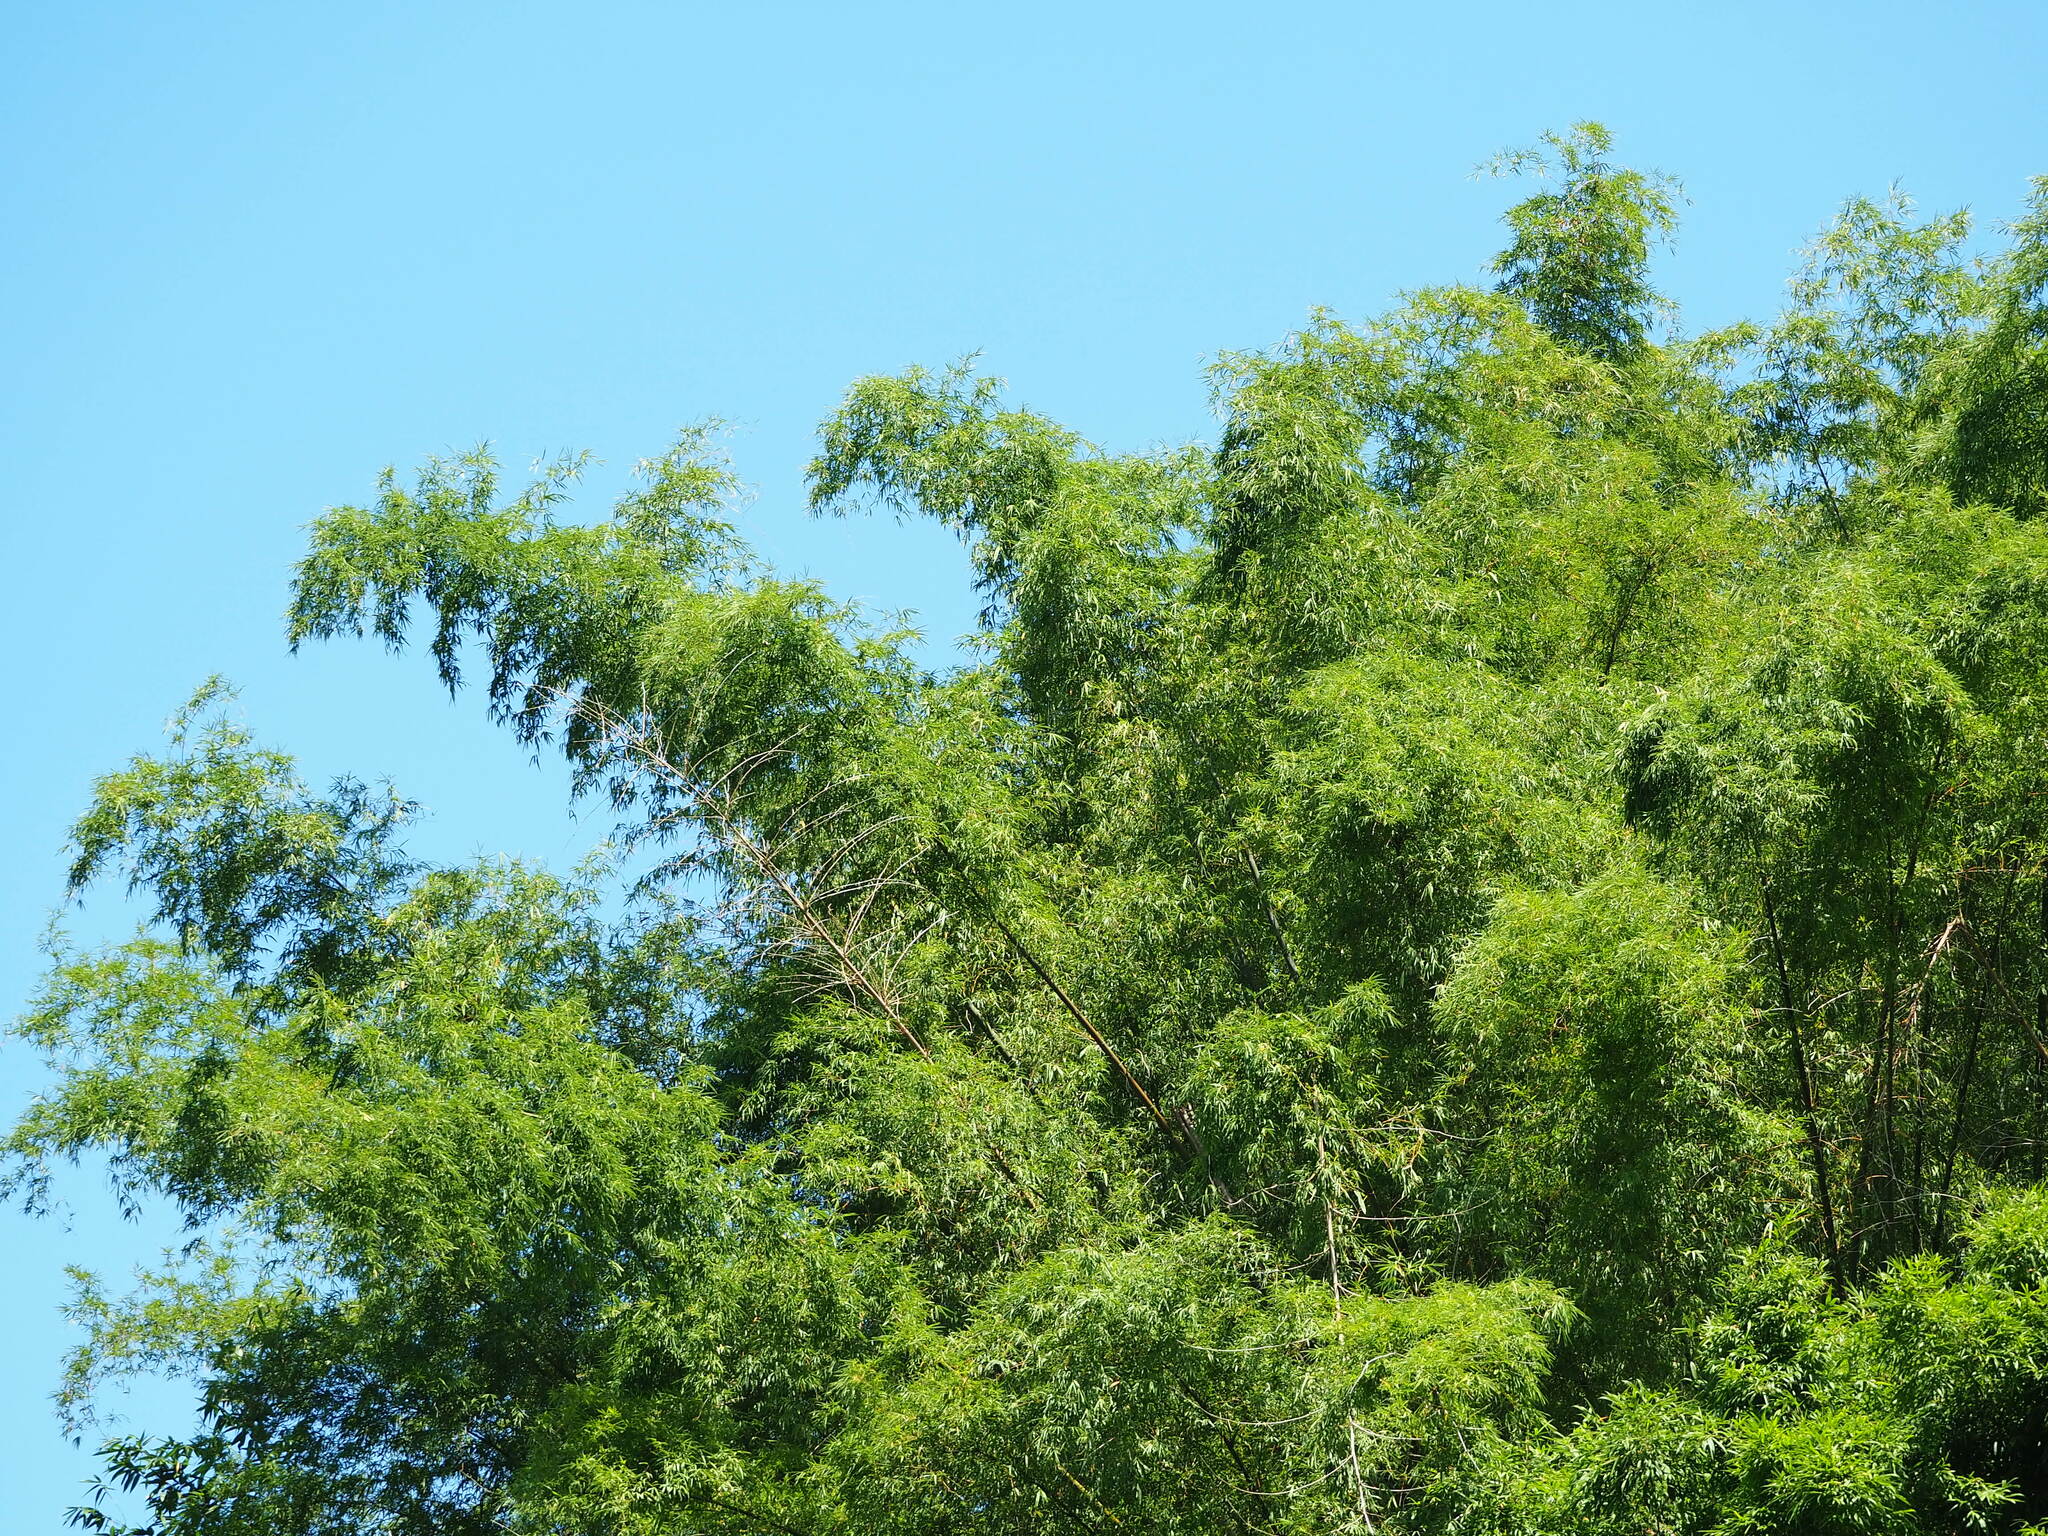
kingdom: Plantae
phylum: Tracheophyta
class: Liliopsida
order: Poales
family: Poaceae
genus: Bambusa
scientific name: Bambusa spinosa
